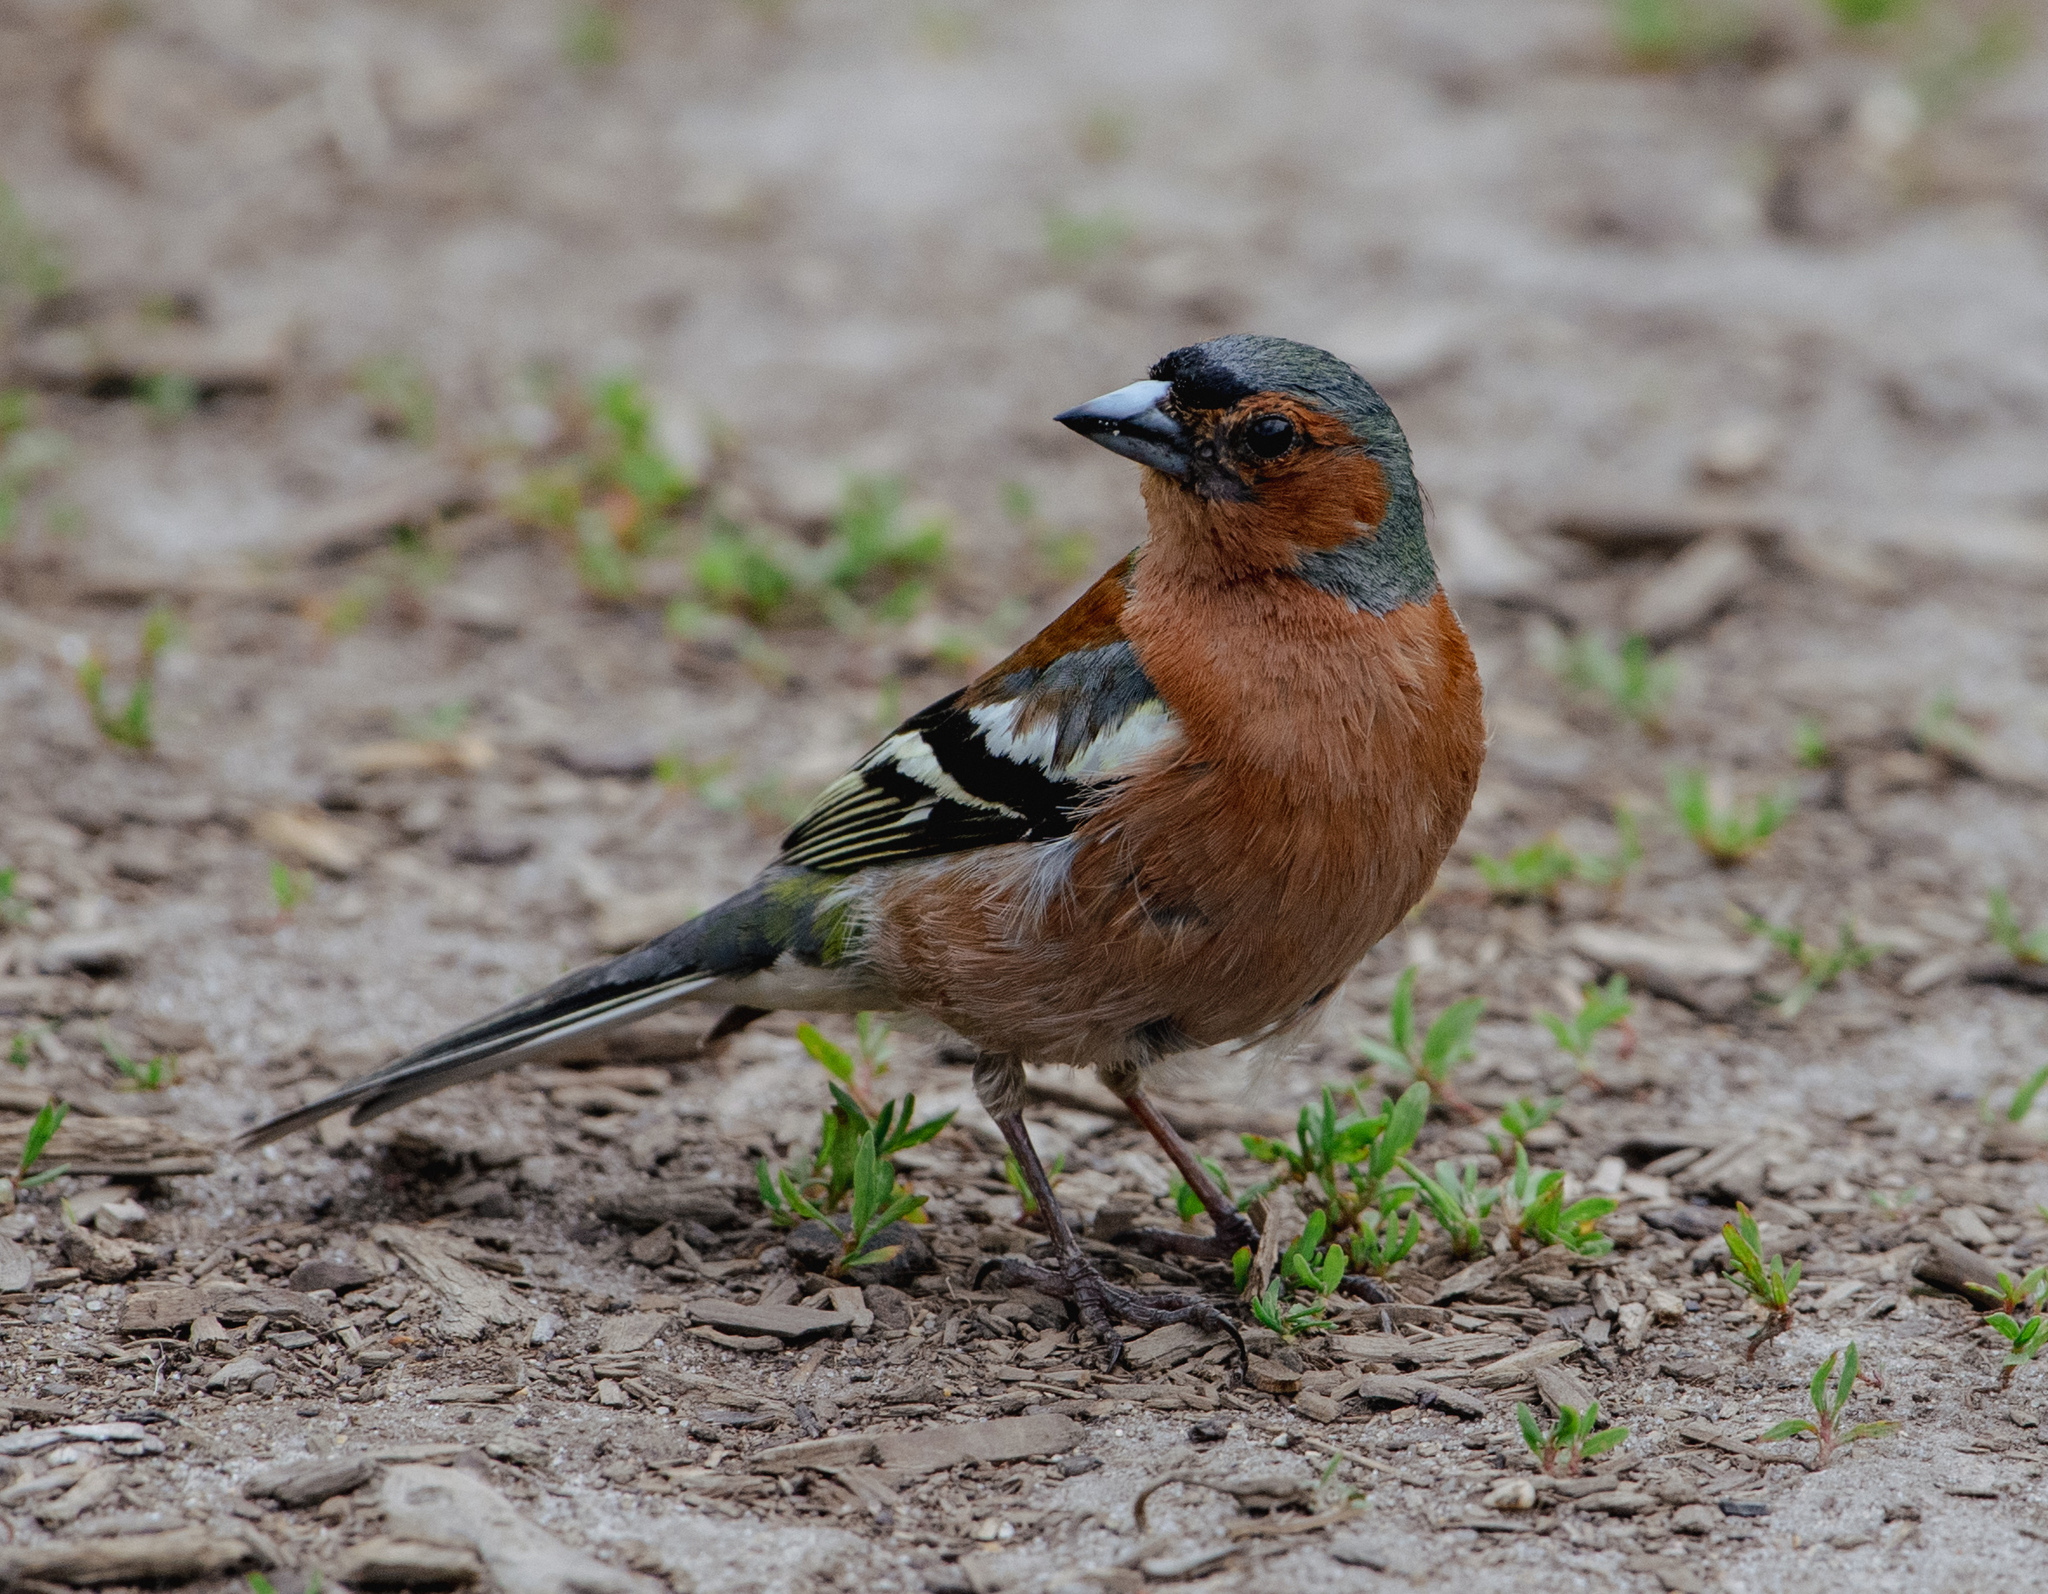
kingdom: Animalia
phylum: Chordata
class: Aves
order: Passeriformes
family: Fringillidae
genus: Fringilla
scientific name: Fringilla coelebs
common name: Common chaffinch
